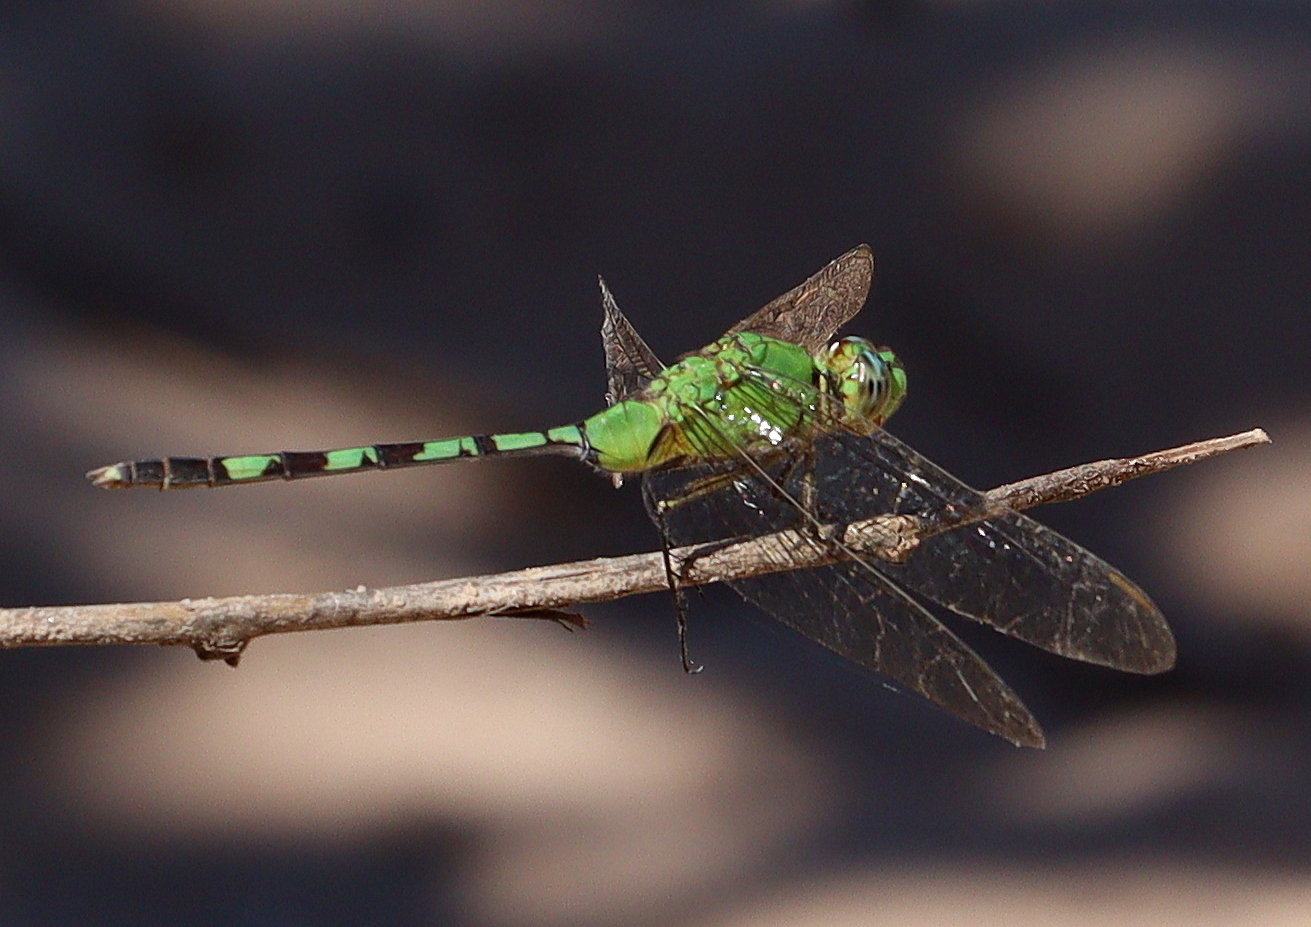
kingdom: Animalia
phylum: Arthropoda
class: Insecta
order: Odonata
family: Libellulidae
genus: Erythemis
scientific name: Erythemis vesiculosa
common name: Great pondhawk
